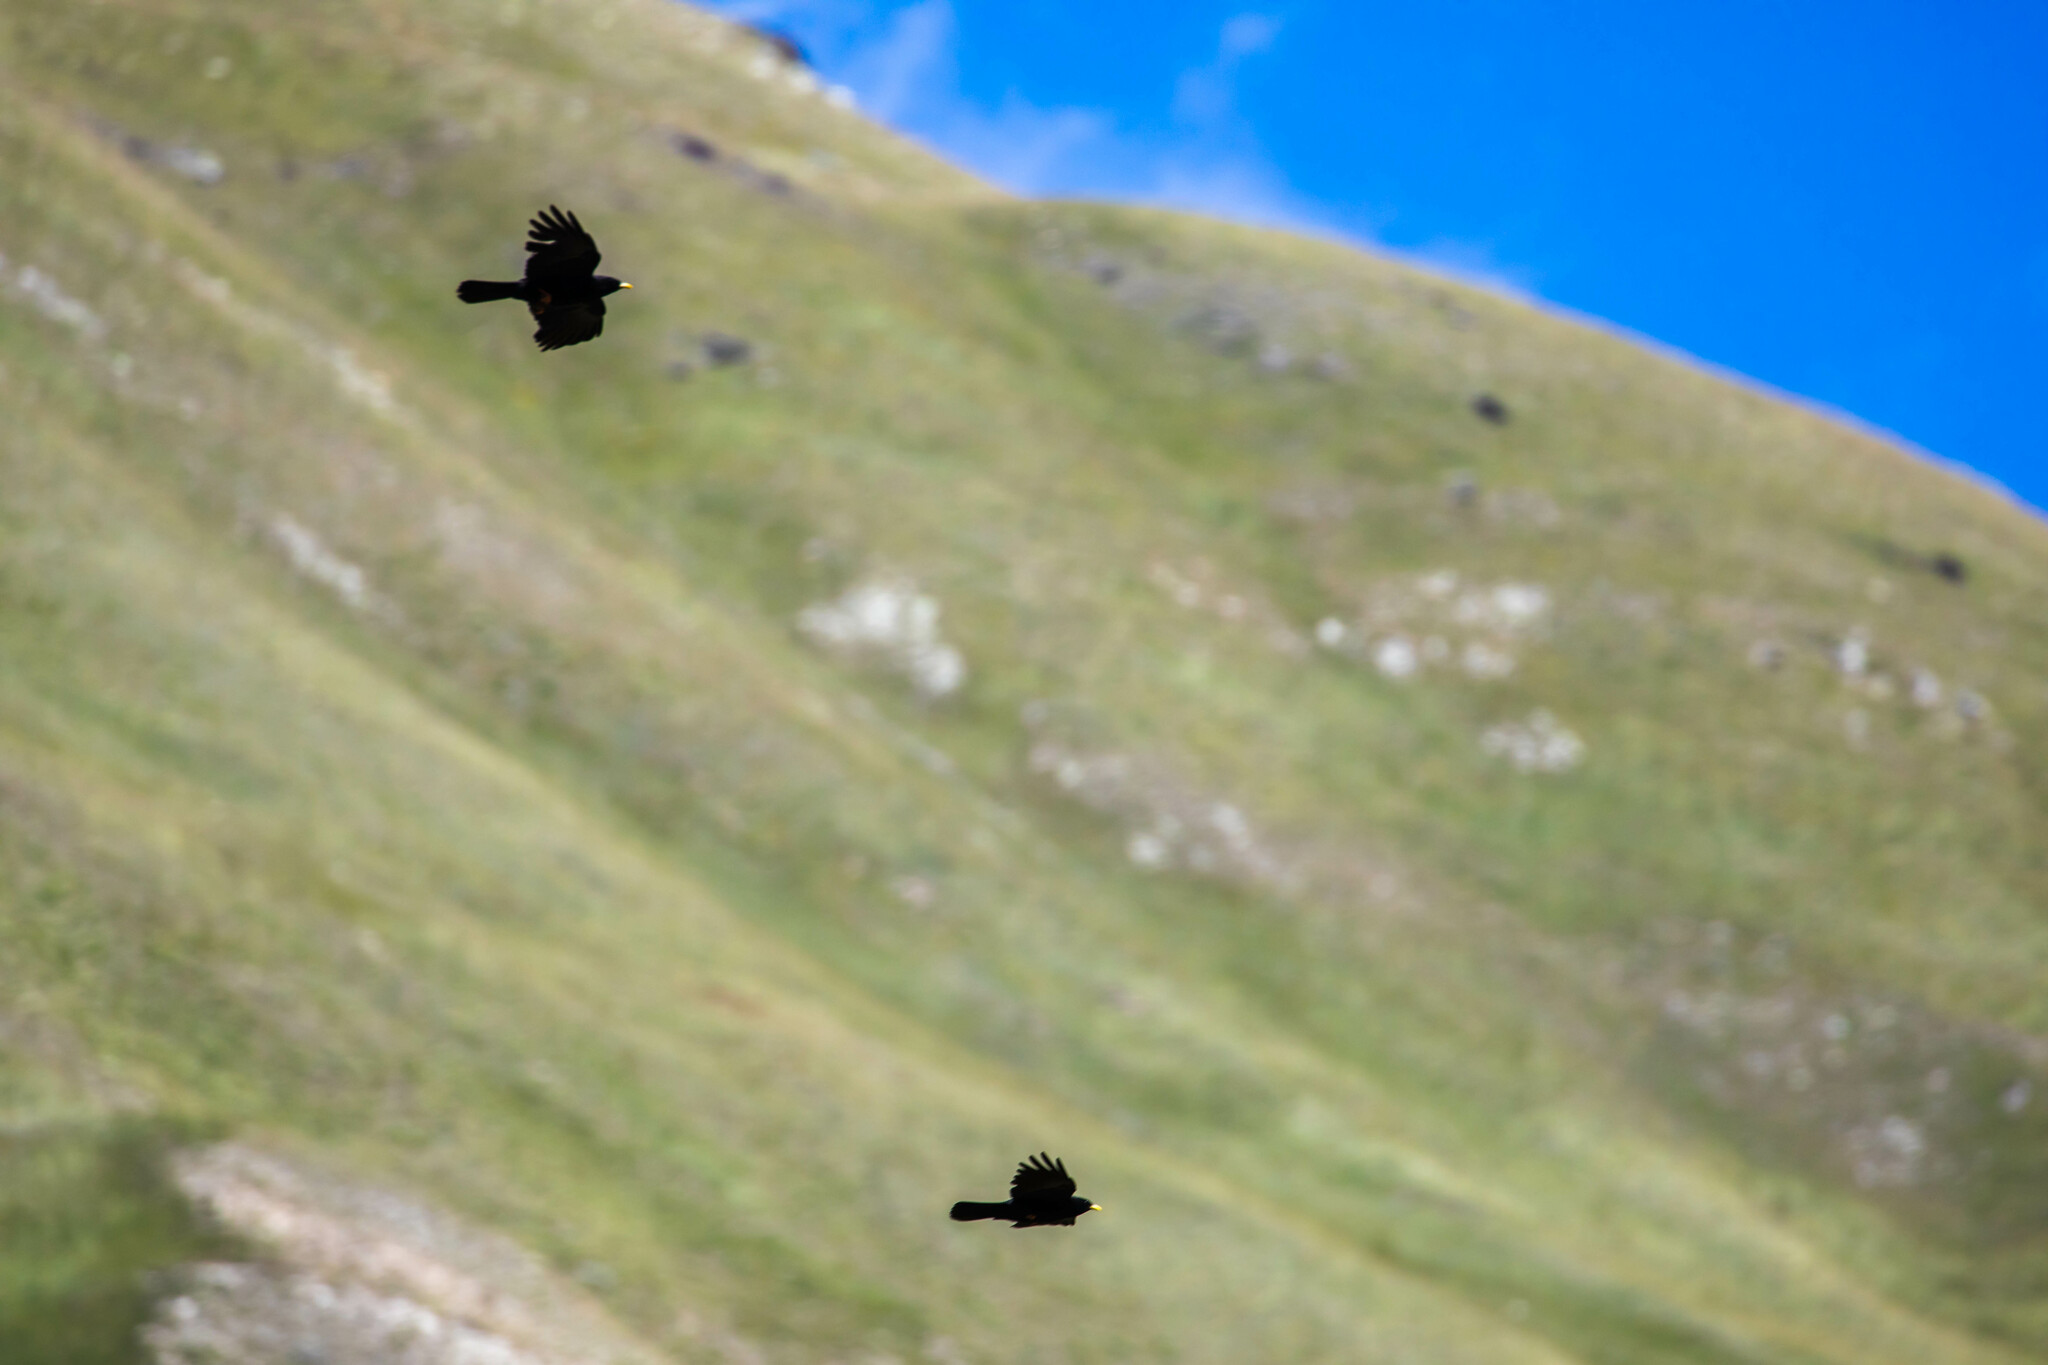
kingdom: Animalia
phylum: Chordata
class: Aves
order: Passeriformes
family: Corvidae
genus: Pyrrhocorax
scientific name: Pyrrhocorax graculus
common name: Alpine chough
